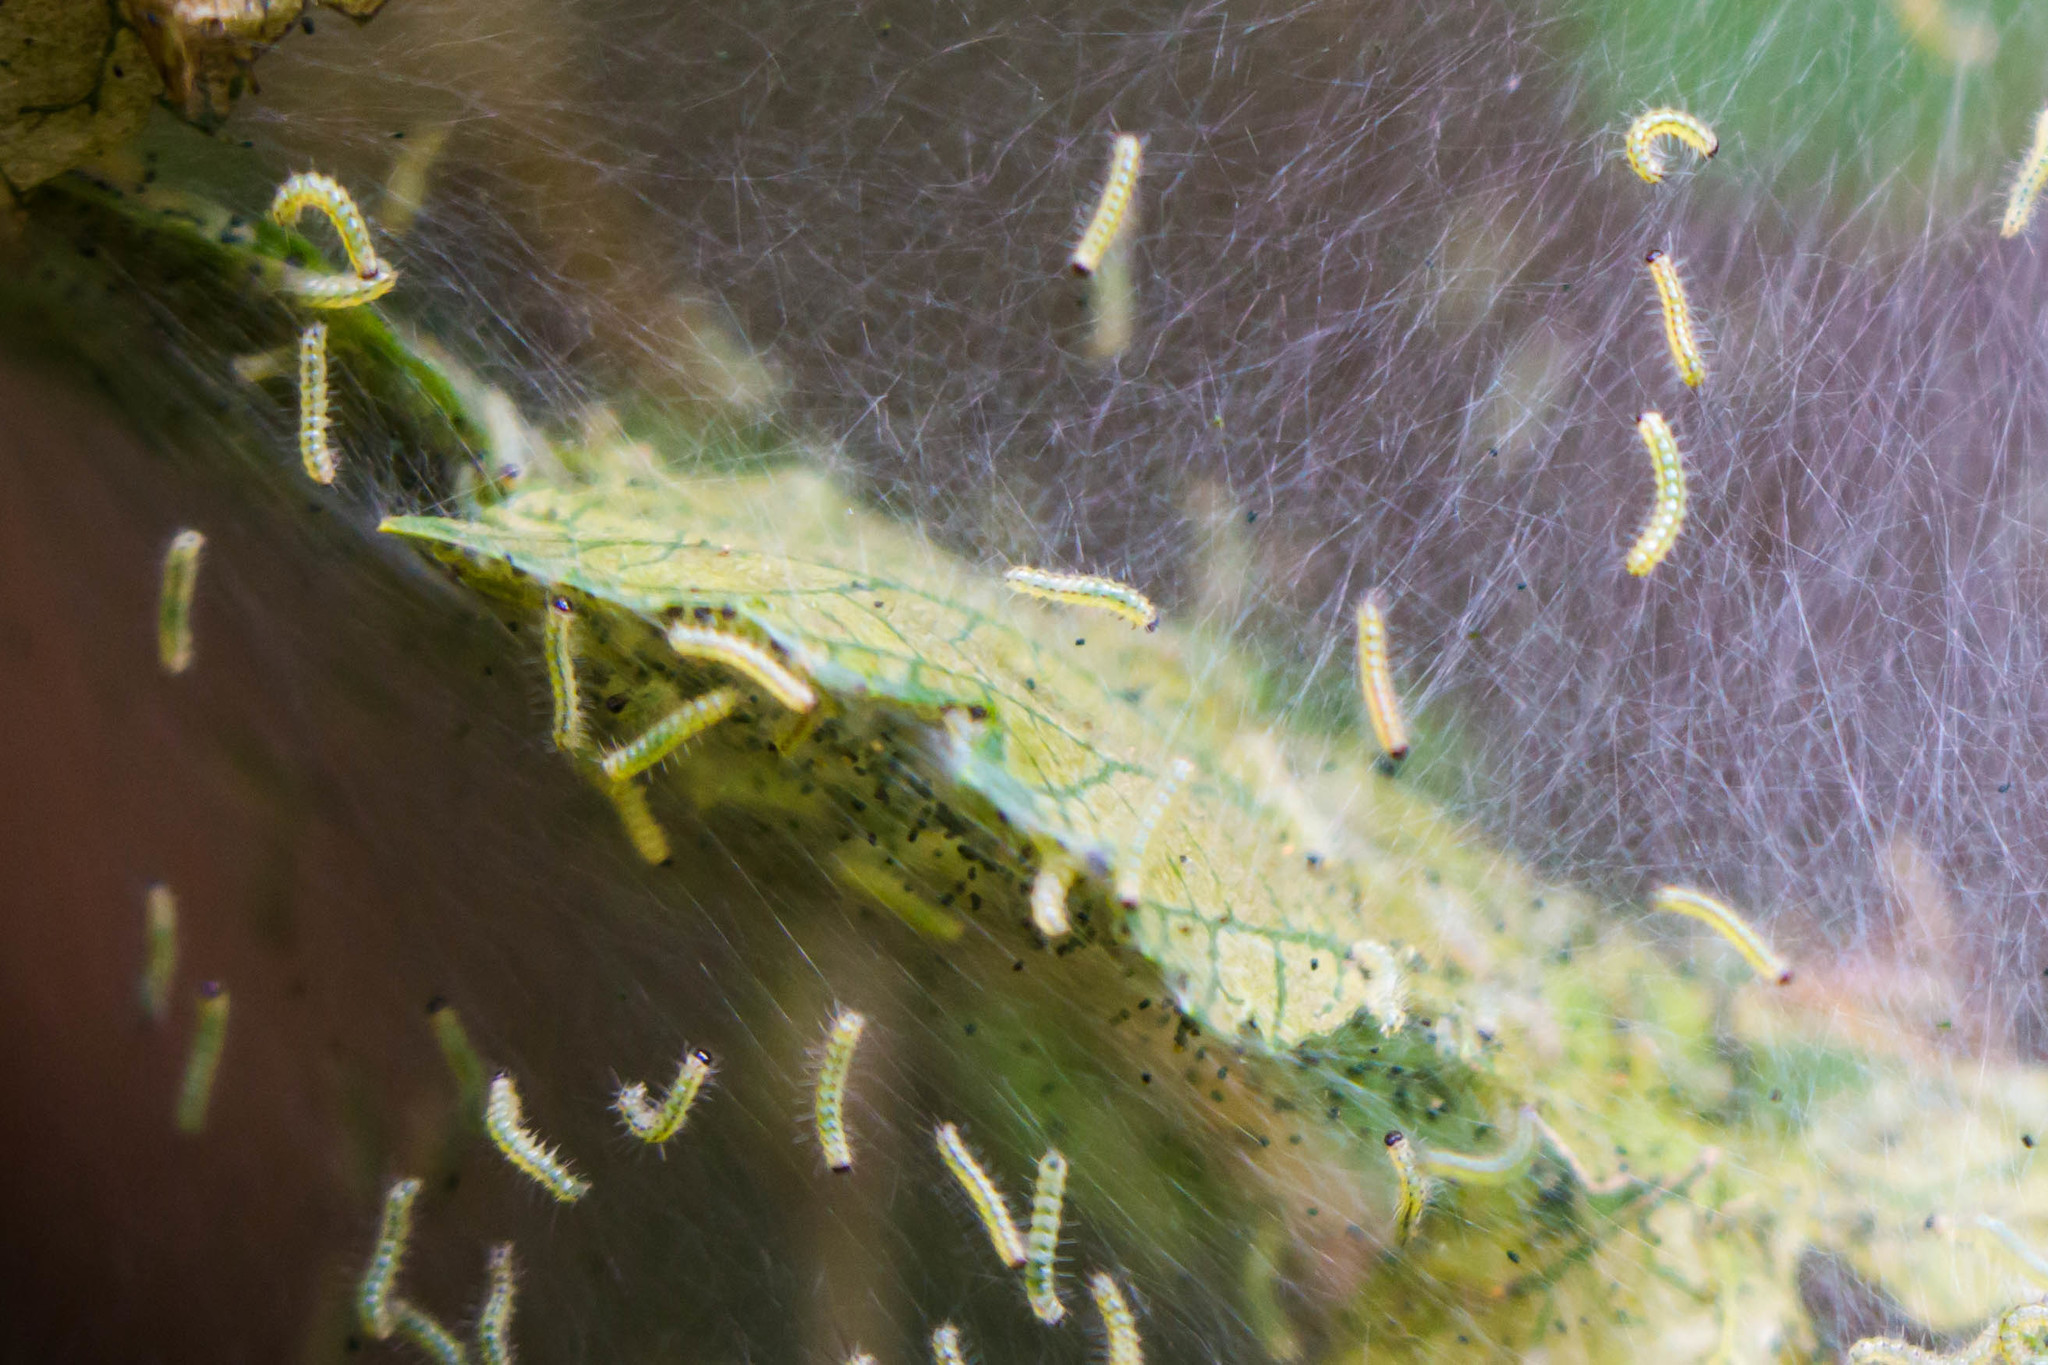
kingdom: Animalia
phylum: Arthropoda
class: Insecta
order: Lepidoptera
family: Erebidae
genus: Hyphantria
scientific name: Hyphantria cunea
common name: American white moth
